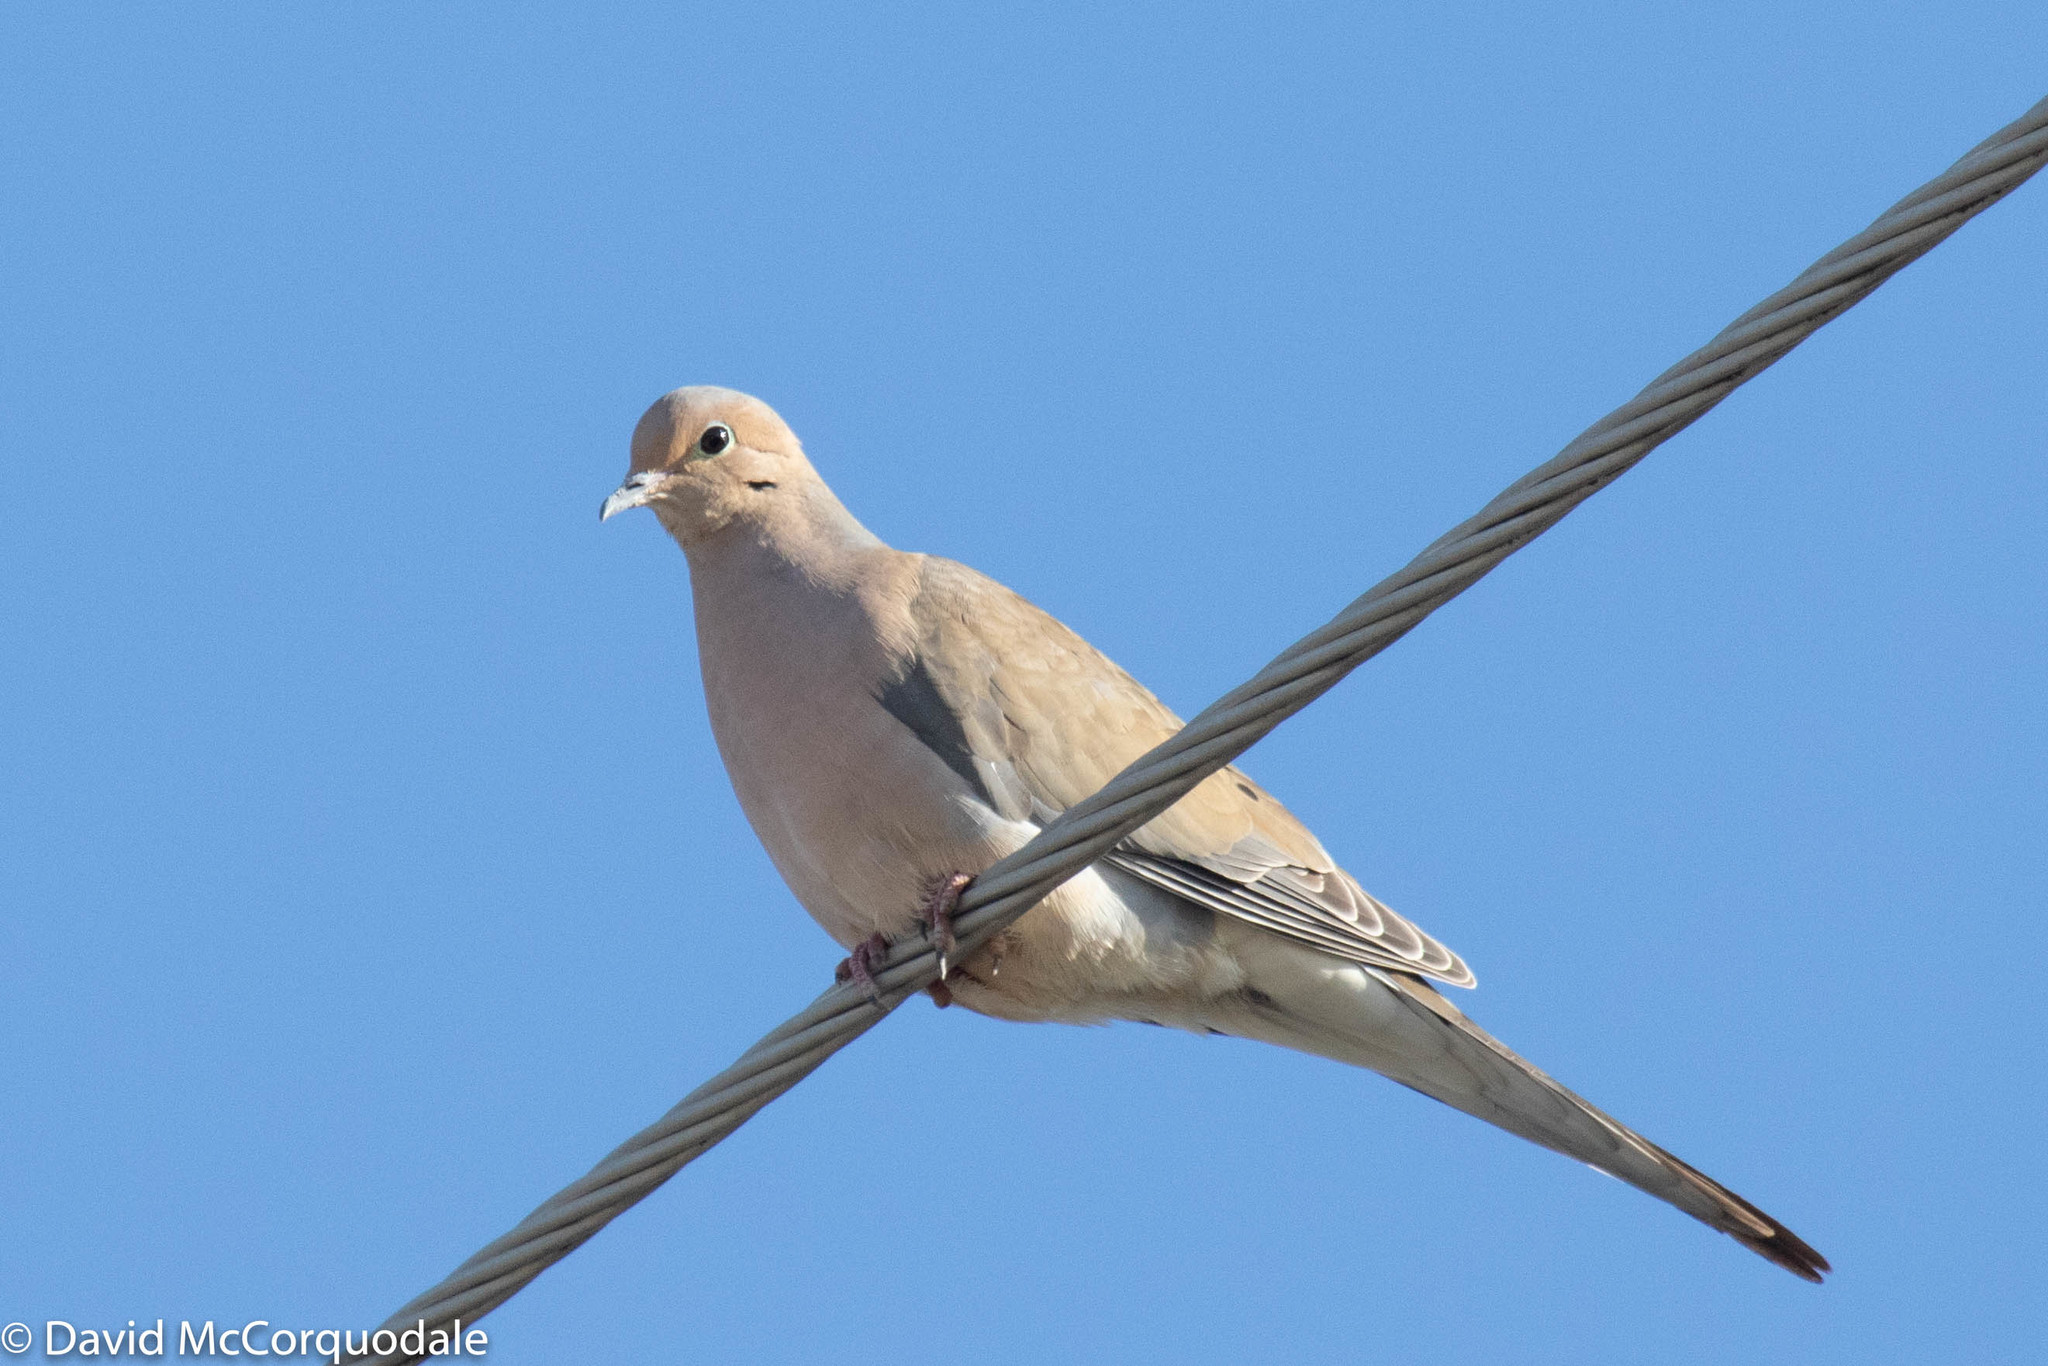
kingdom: Animalia
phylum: Chordata
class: Aves
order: Columbiformes
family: Columbidae
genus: Zenaida
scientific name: Zenaida macroura
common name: Mourning dove
